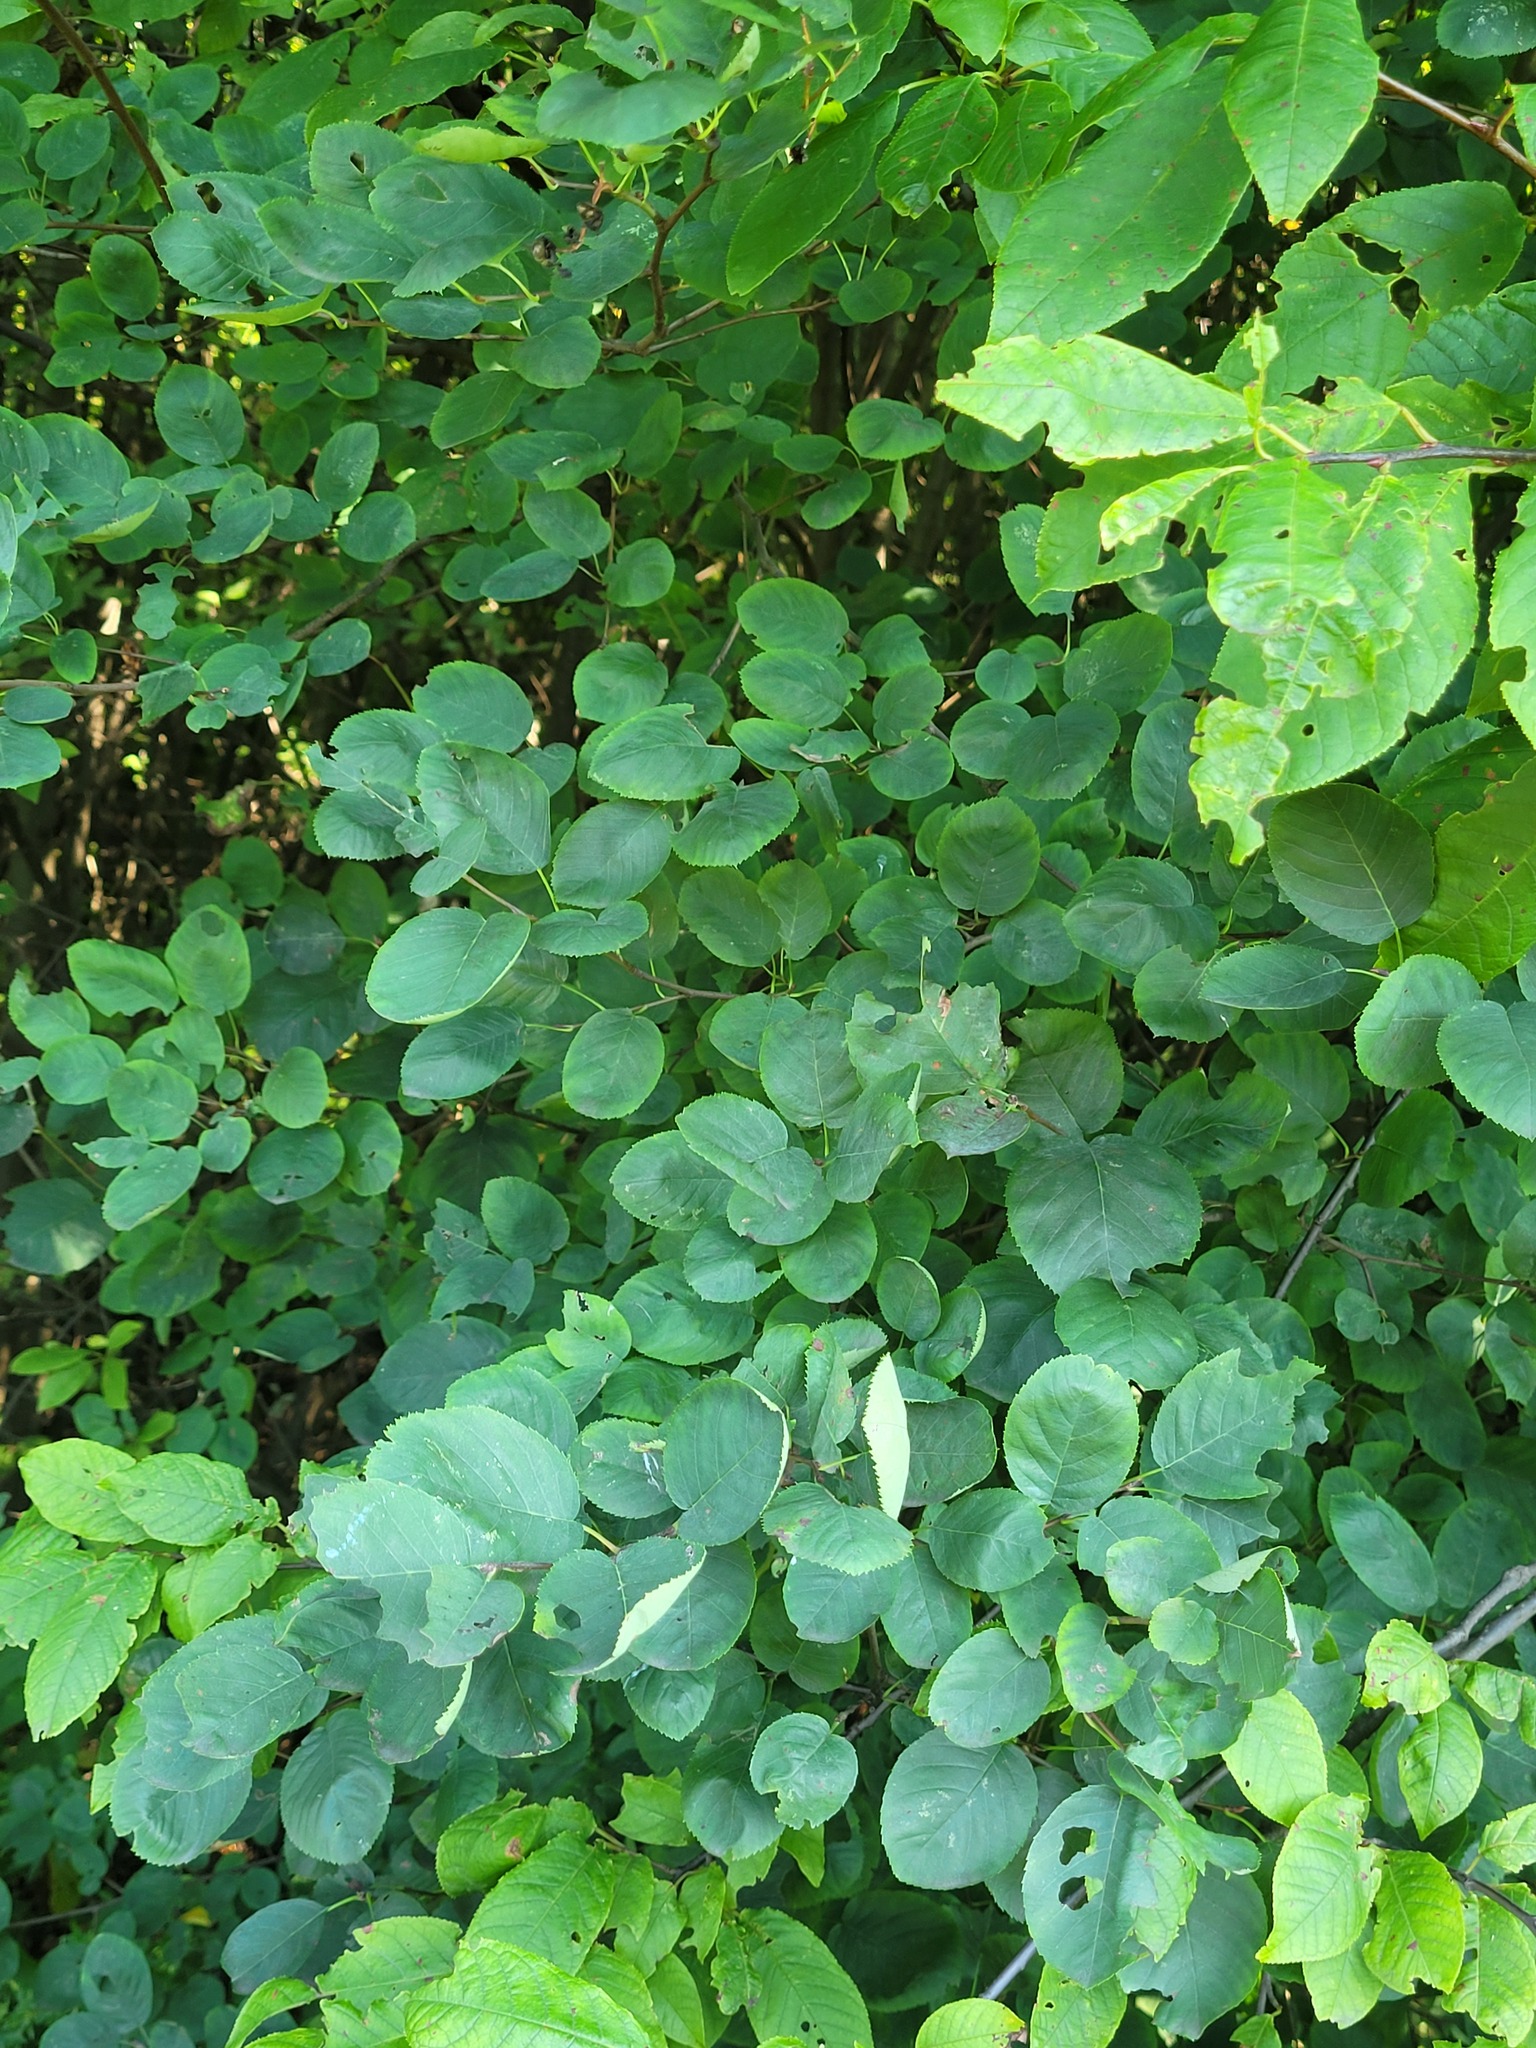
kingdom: Plantae
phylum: Tracheophyta
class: Magnoliopsida
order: Rosales
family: Rosaceae
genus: Amelanchier
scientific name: Amelanchier
